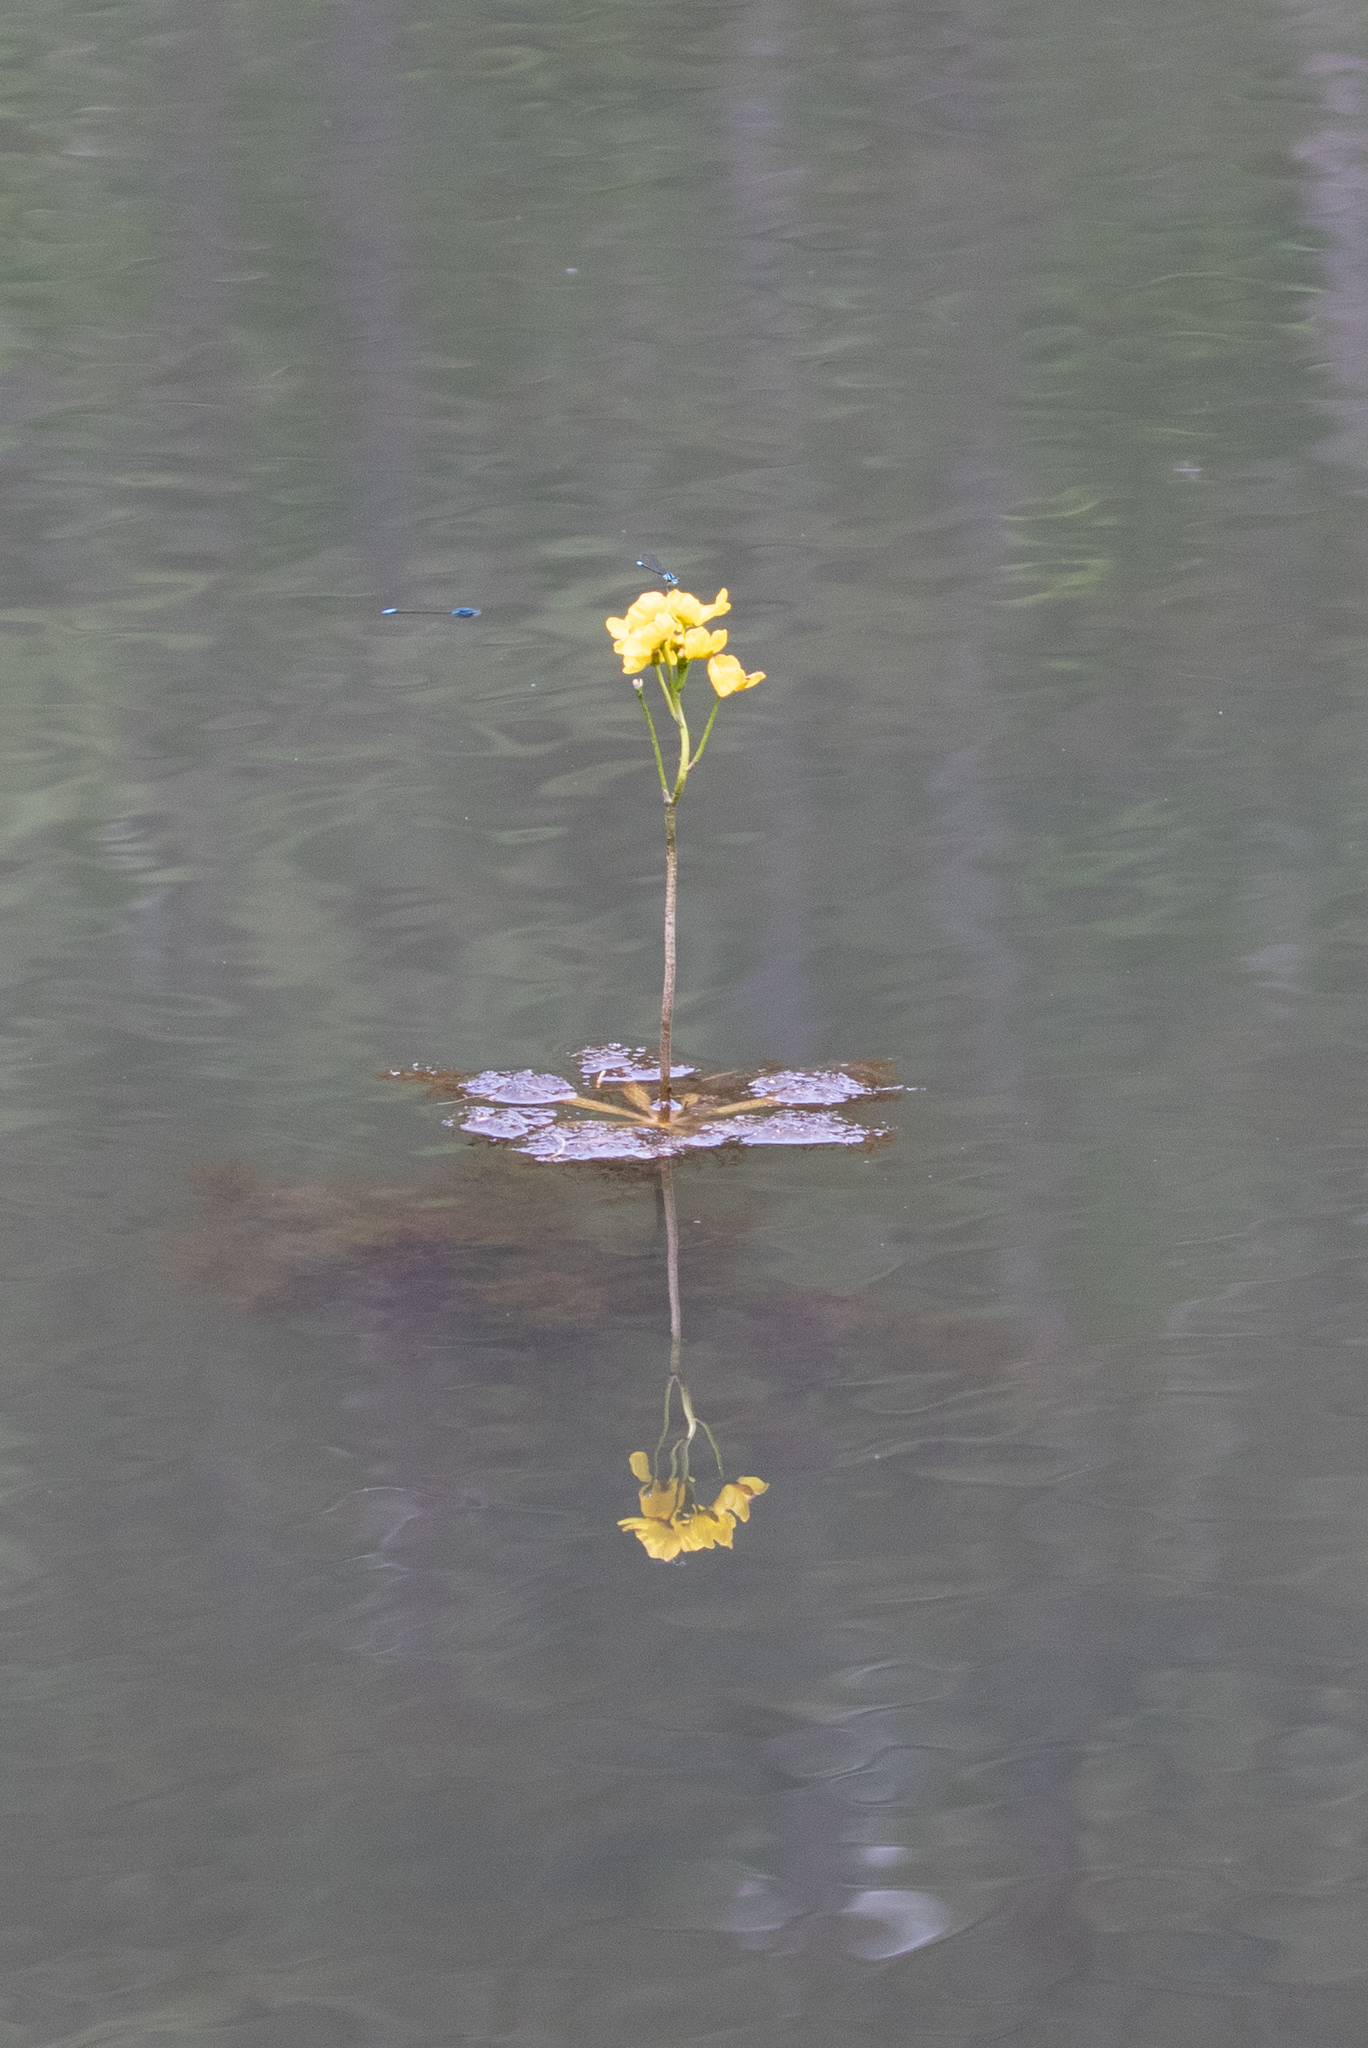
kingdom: Plantae
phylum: Tracheophyta
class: Magnoliopsida
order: Lamiales
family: Lentibulariaceae
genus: Utricularia
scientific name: Utricularia inflata
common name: Floating bladderwort
